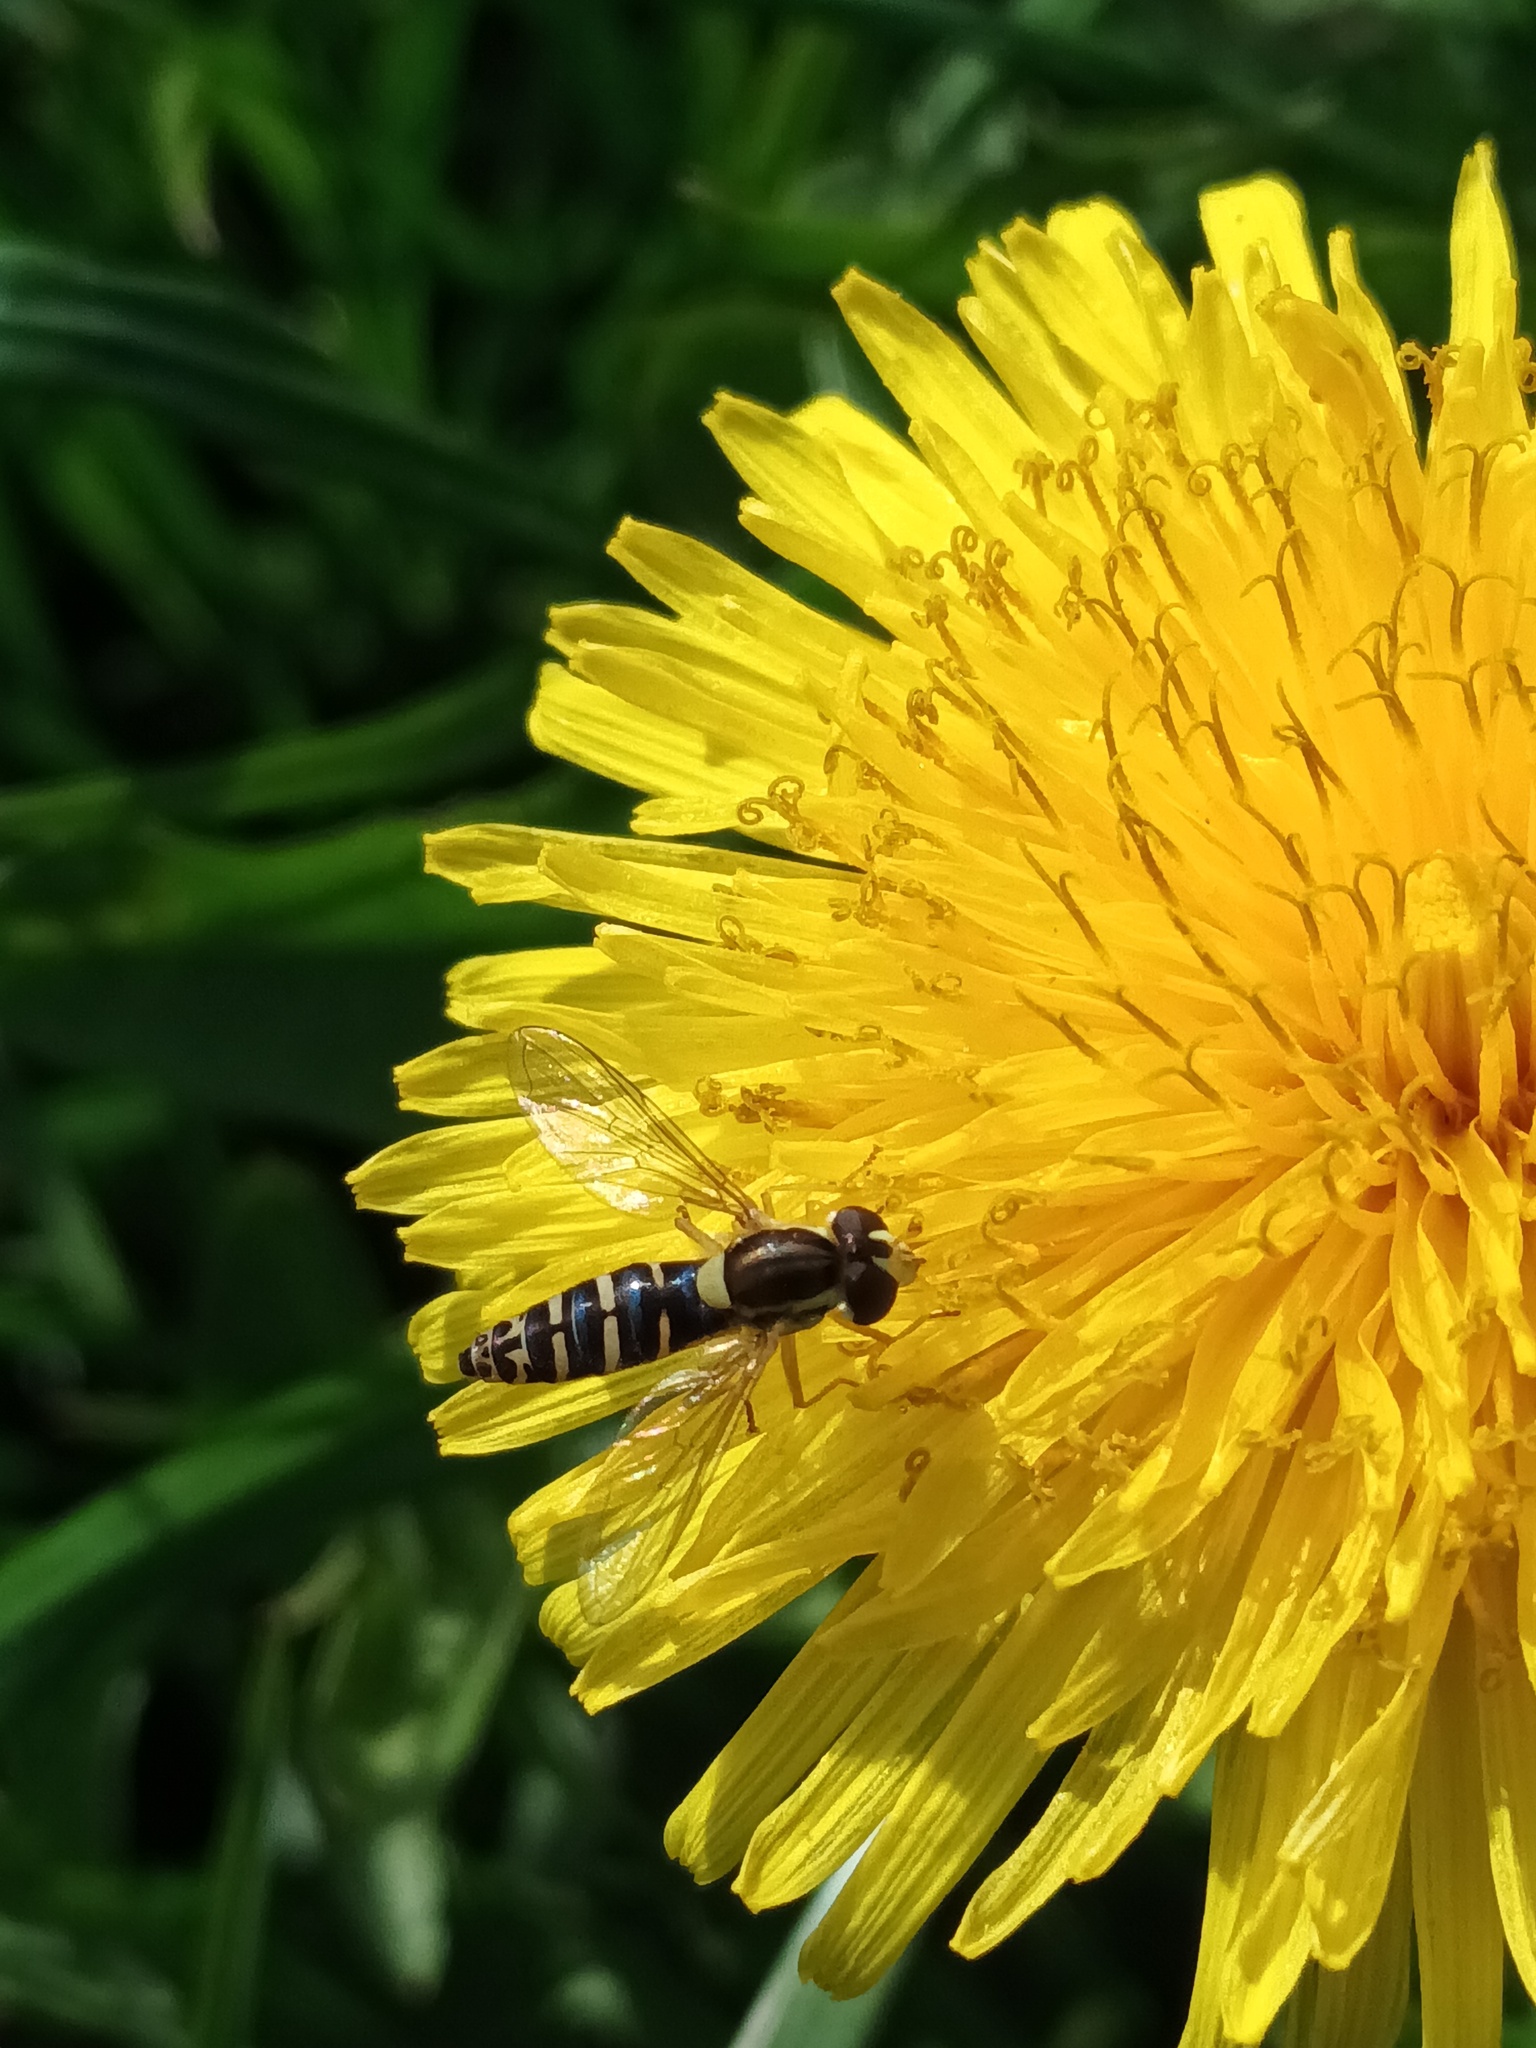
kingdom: Animalia
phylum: Arthropoda
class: Insecta
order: Diptera
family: Syrphidae
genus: Sphaerophoria
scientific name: Sphaerophoria
